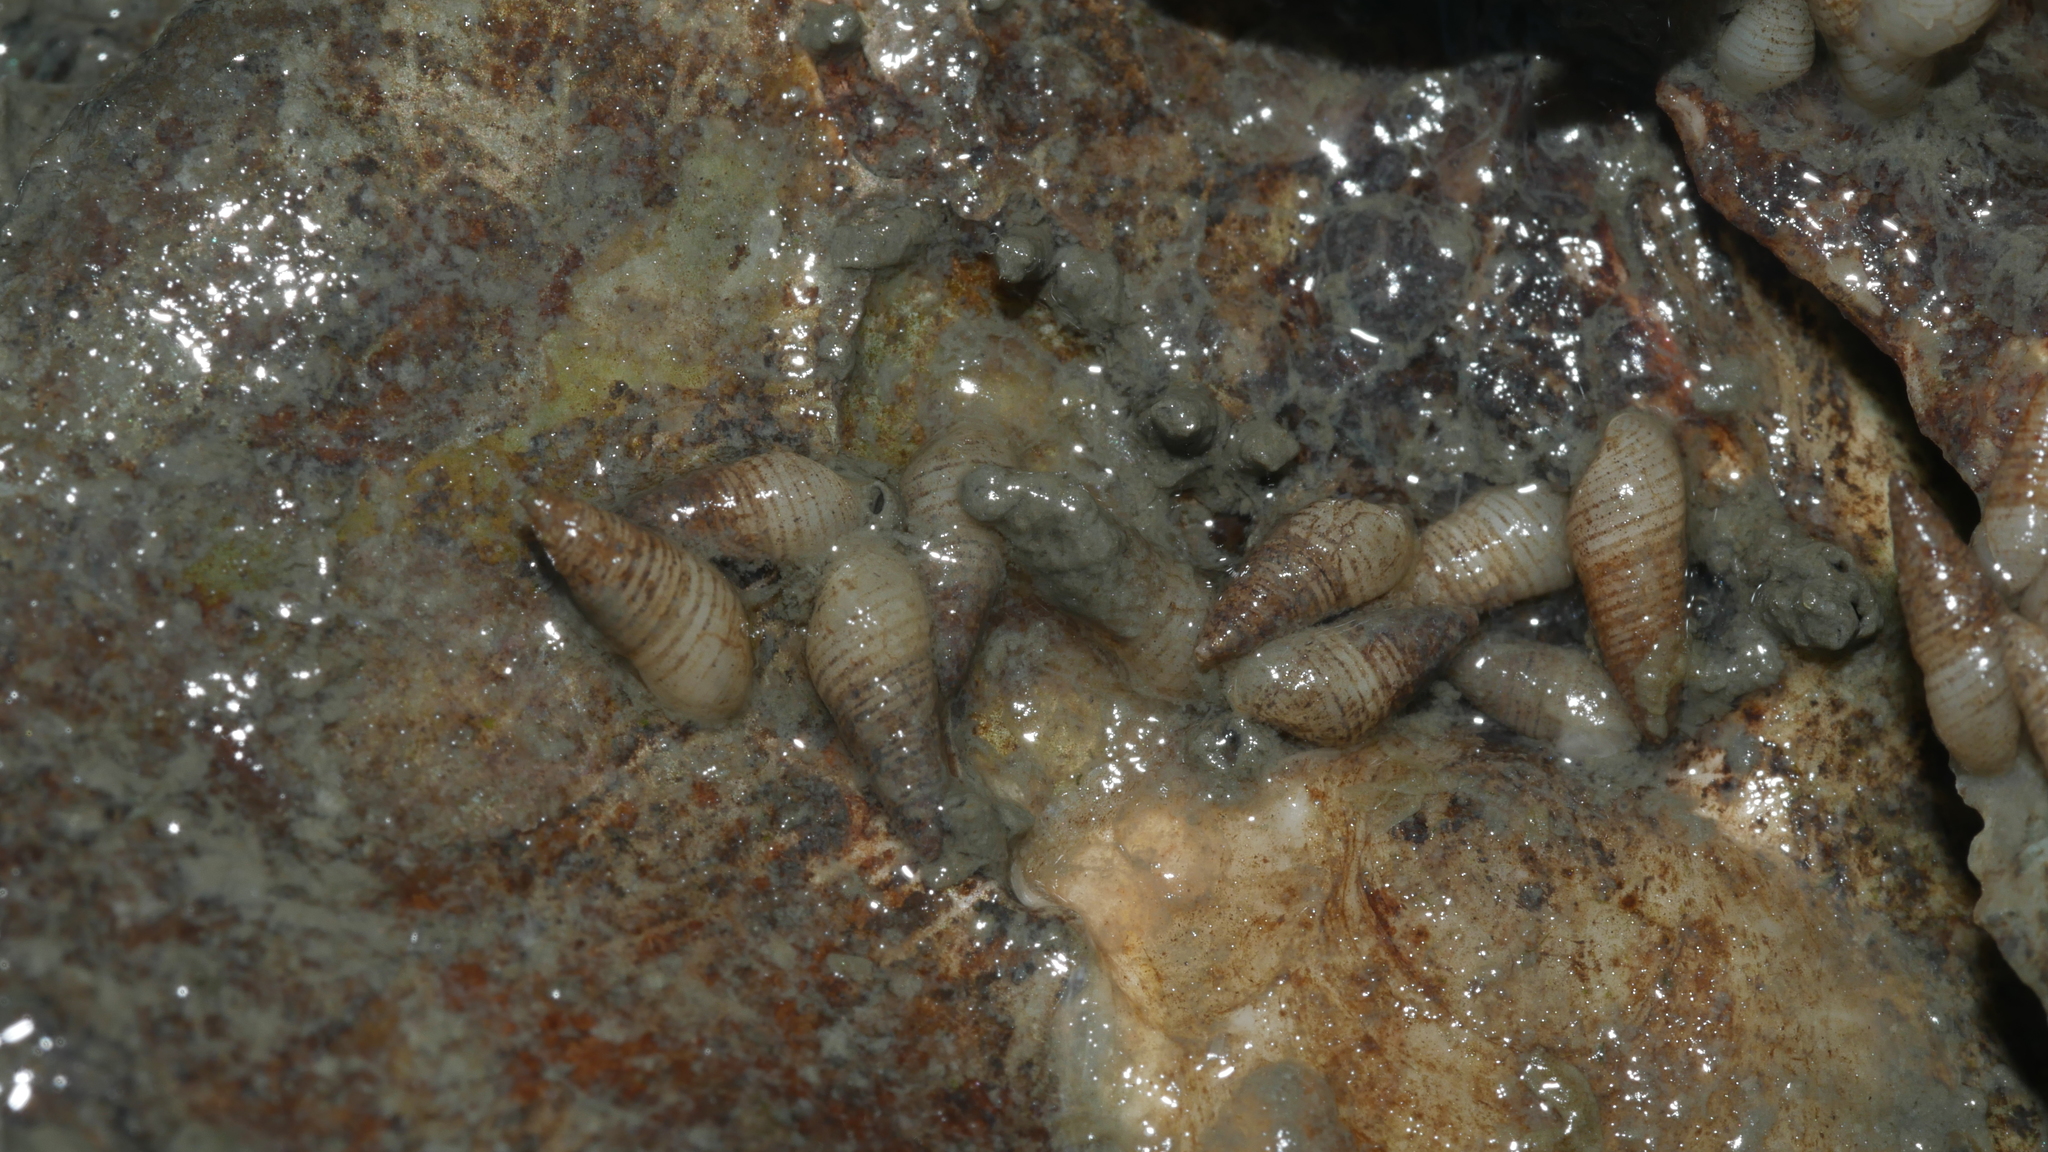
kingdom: Animalia
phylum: Mollusca
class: Gastropoda
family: Pyramidellidae
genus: Boonea
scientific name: Boonea impressa
